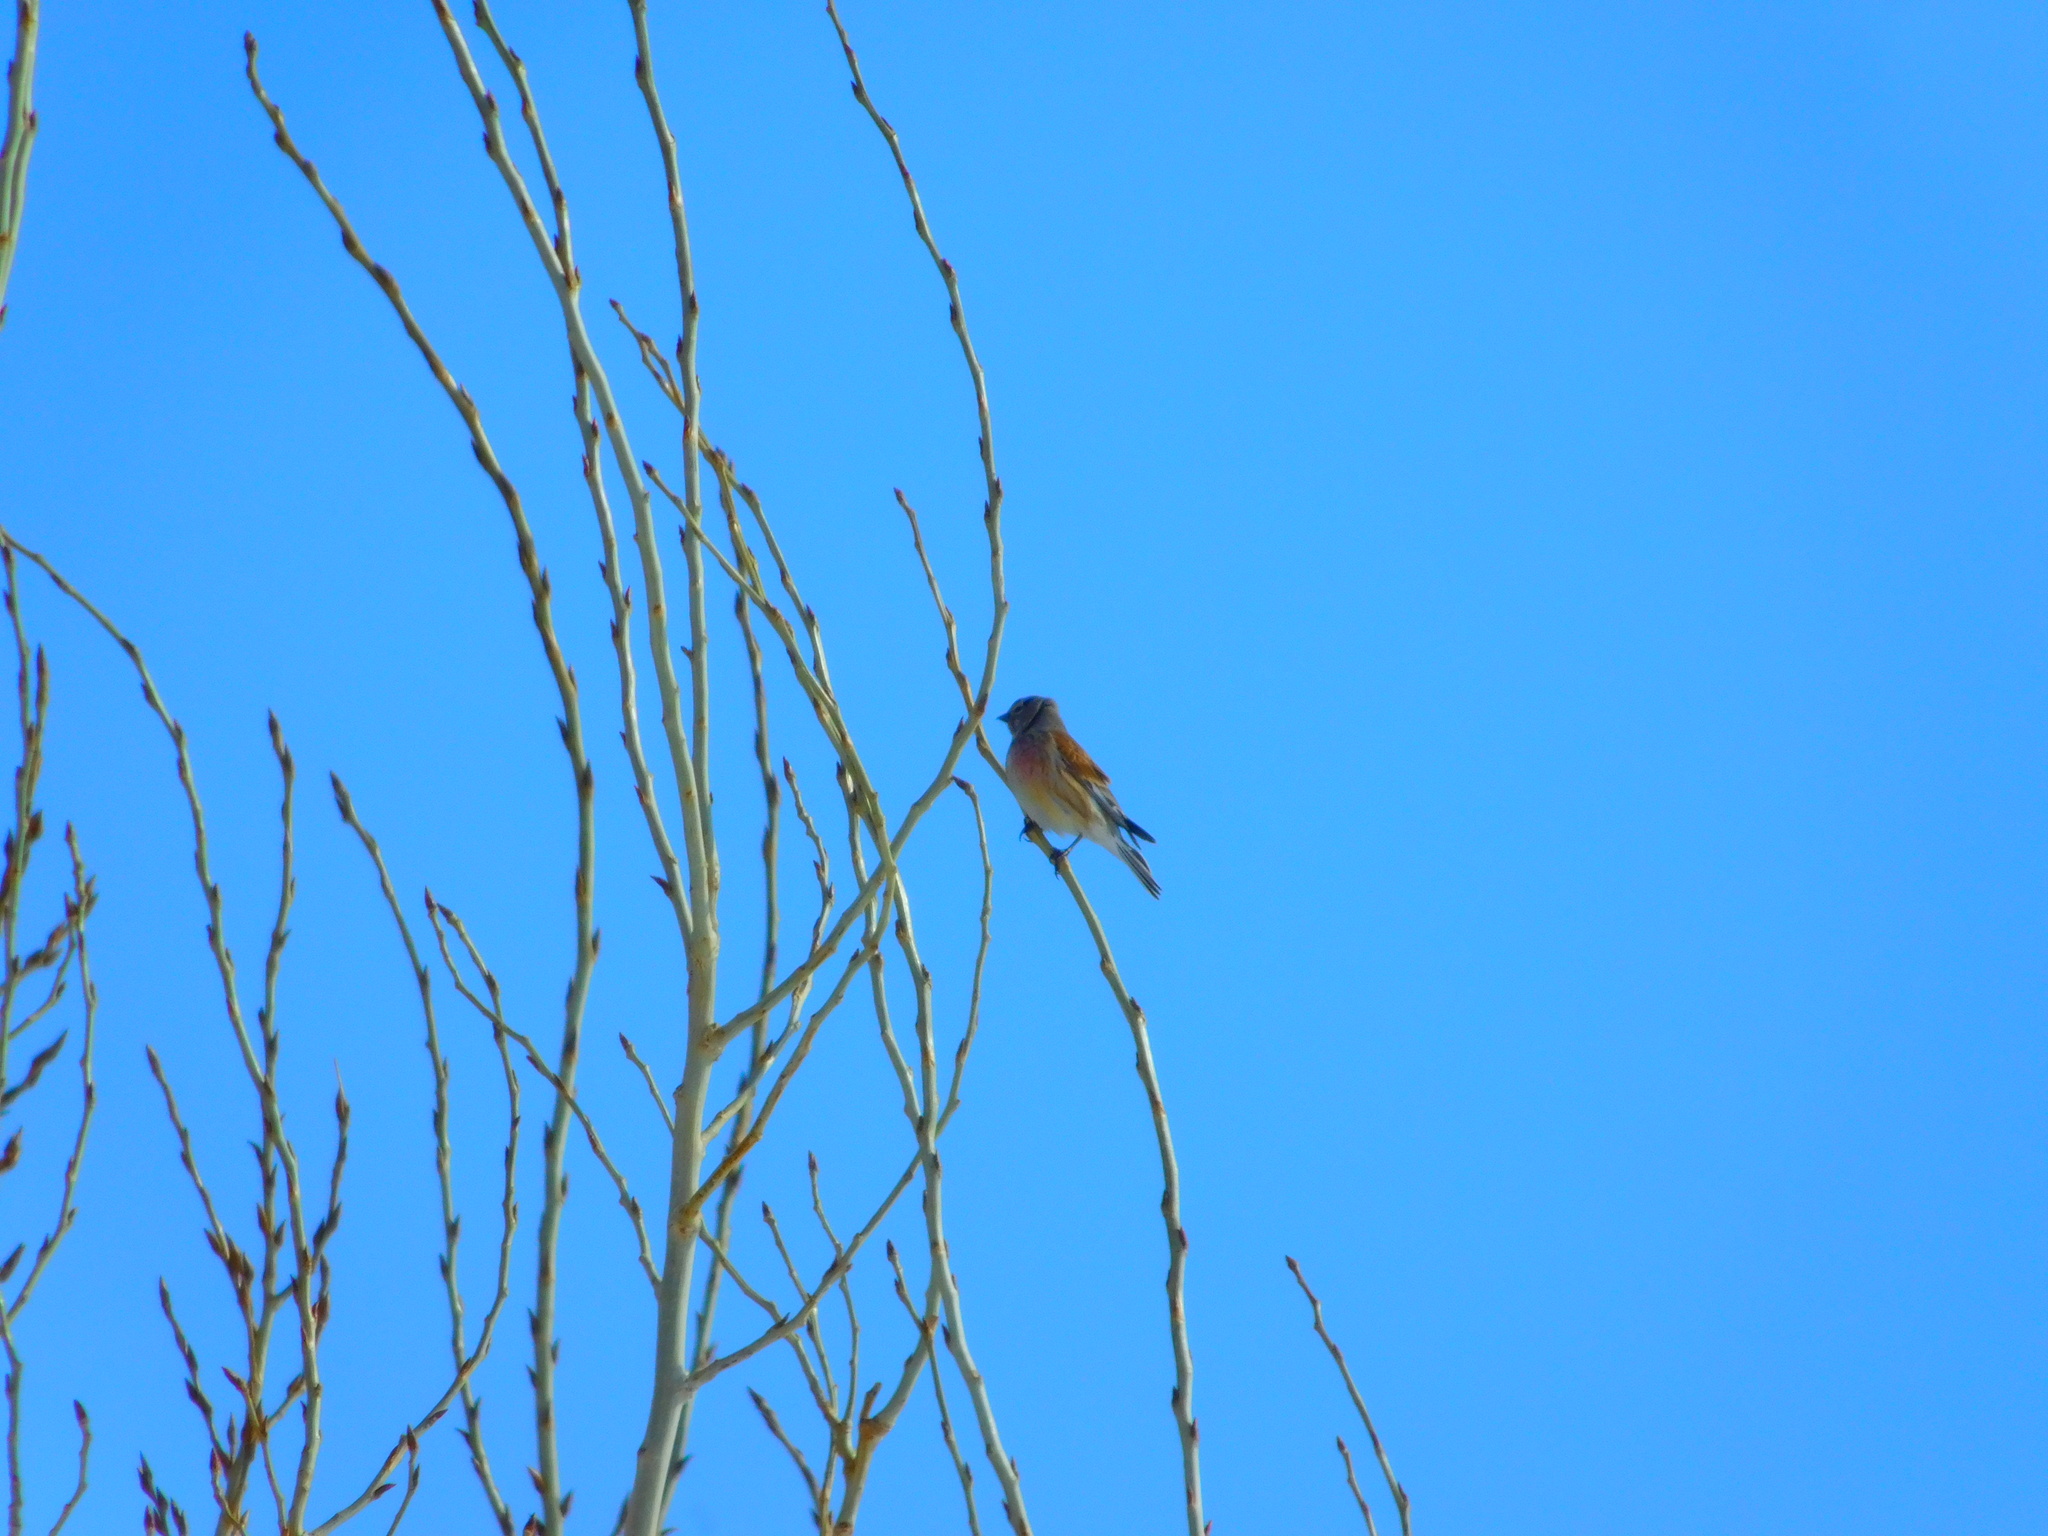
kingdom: Animalia
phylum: Chordata
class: Aves
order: Passeriformes
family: Fringillidae
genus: Linaria
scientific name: Linaria cannabina
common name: Common linnet
